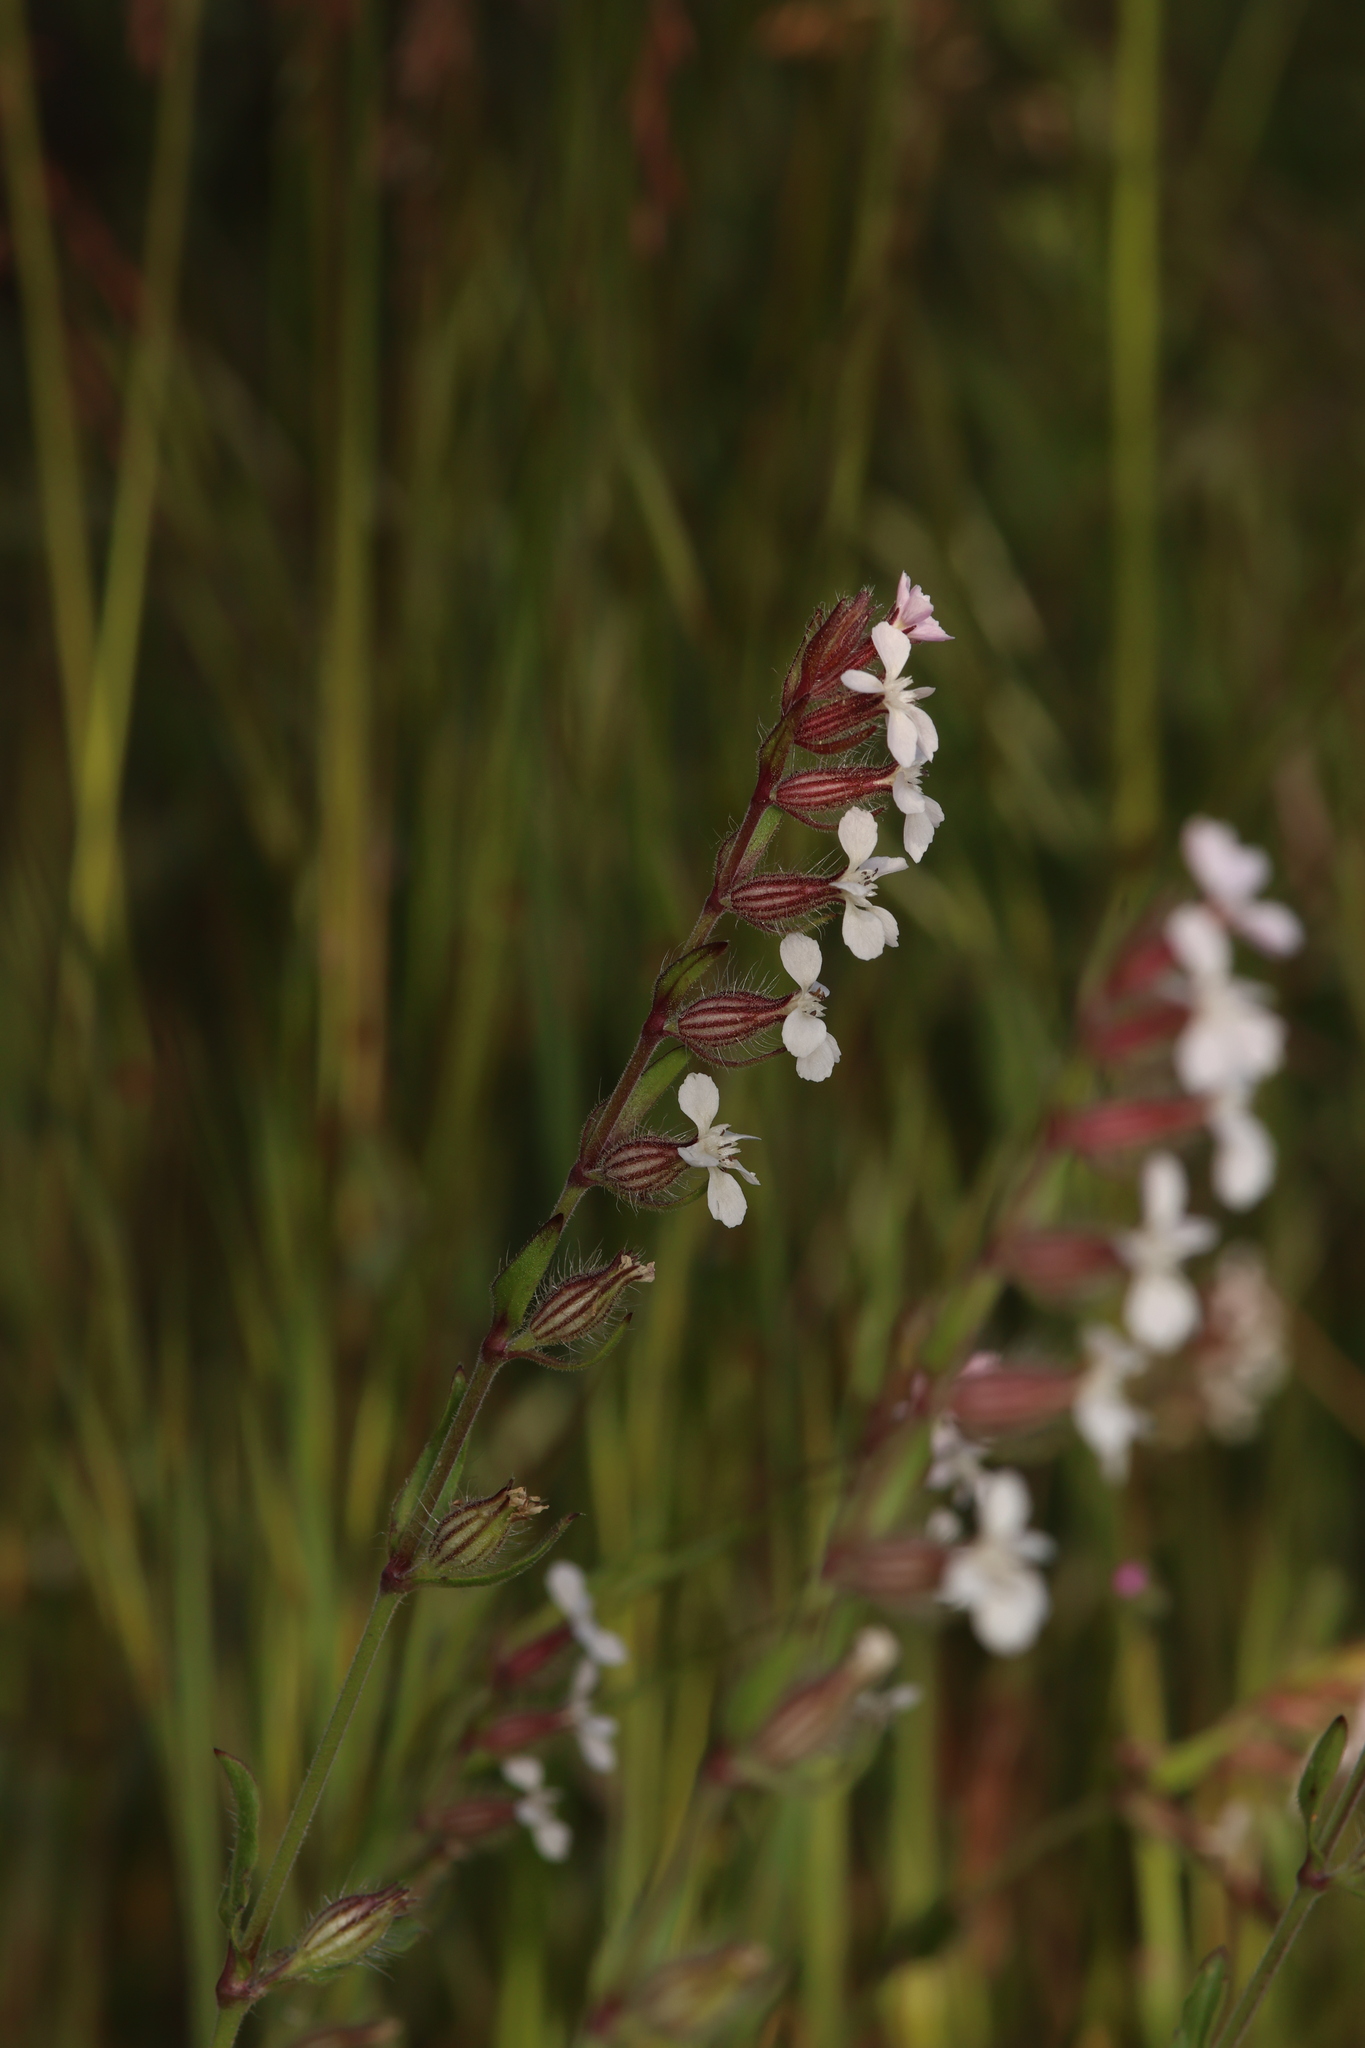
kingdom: Plantae
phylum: Tracheophyta
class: Magnoliopsida
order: Caryophyllales
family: Caryophyllaceae
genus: Silene
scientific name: Silene gallica
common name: Small-flowered catchfly
